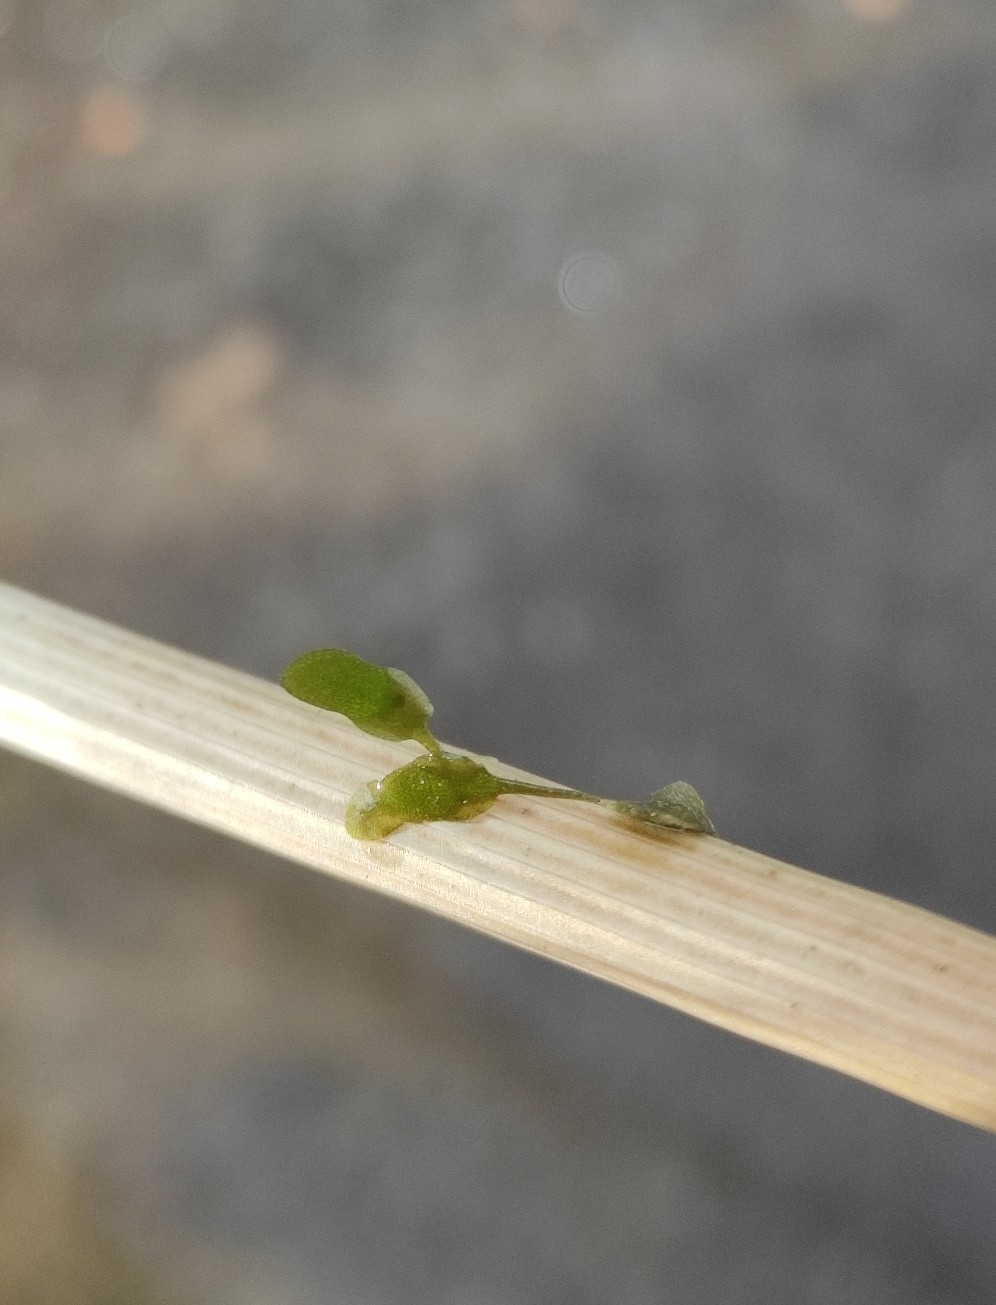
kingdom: Plantae
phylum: Tracheophyta
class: Liliopsida
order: Alismatales
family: Araceae
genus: Lemna
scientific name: Lemna trisulca
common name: Ivy-leaved duckweed
